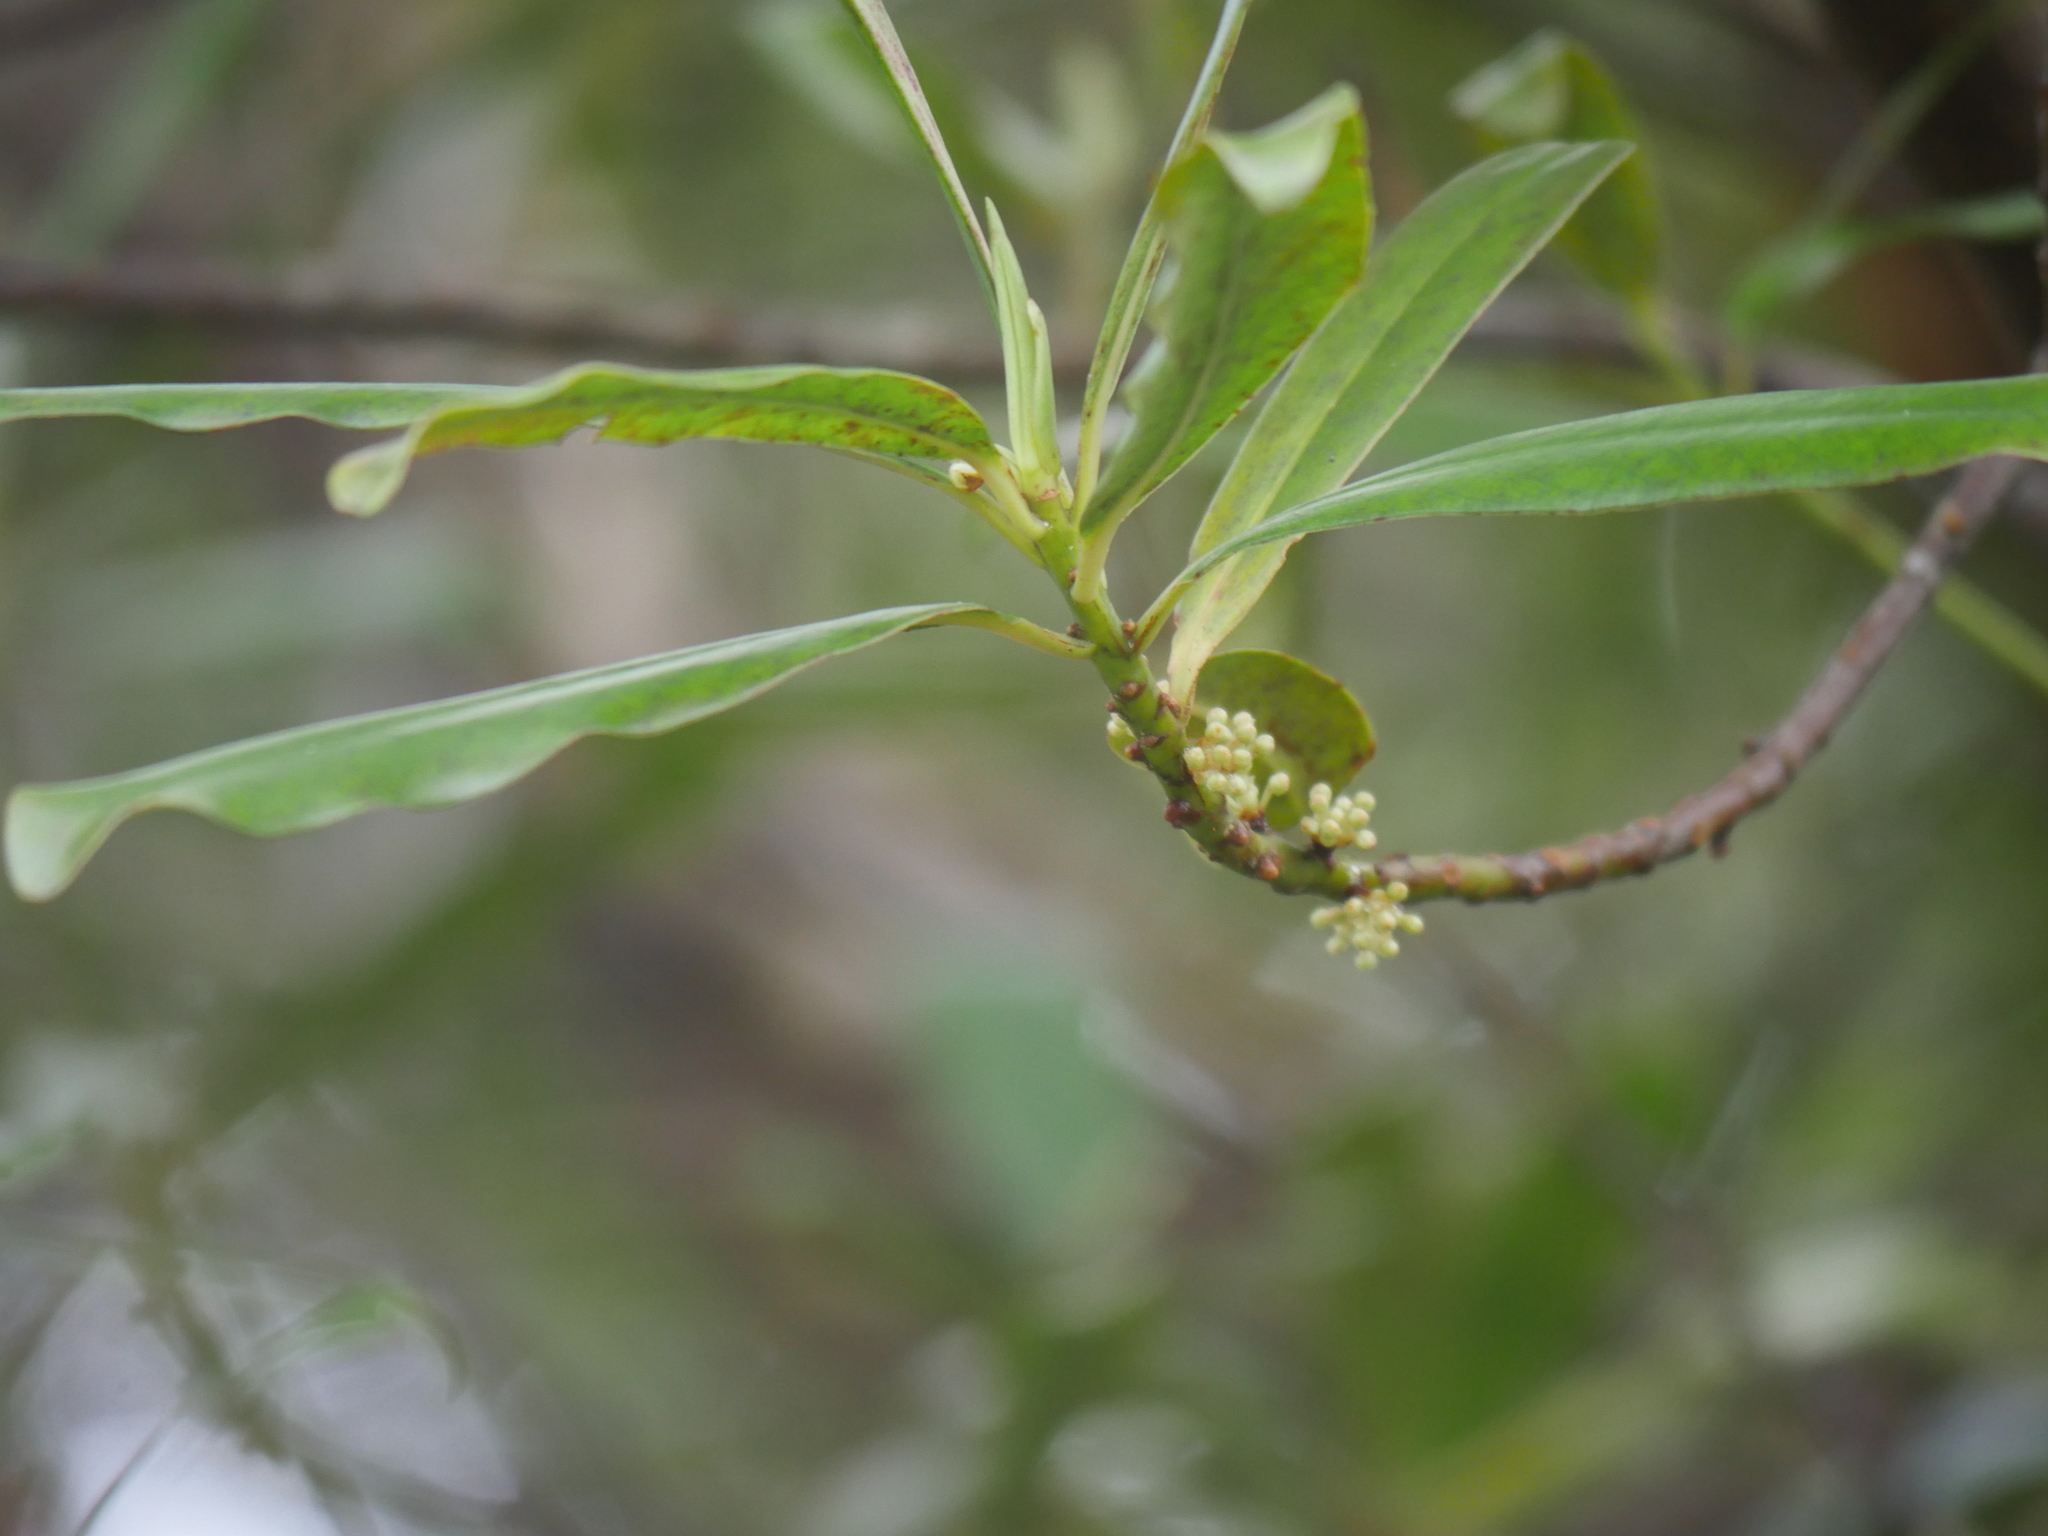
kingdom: Plantae
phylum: Tracheophyta
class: Magnoliopsida
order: Ericales
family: Primulaceae
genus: Myrsine
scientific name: Myrsine salicina
